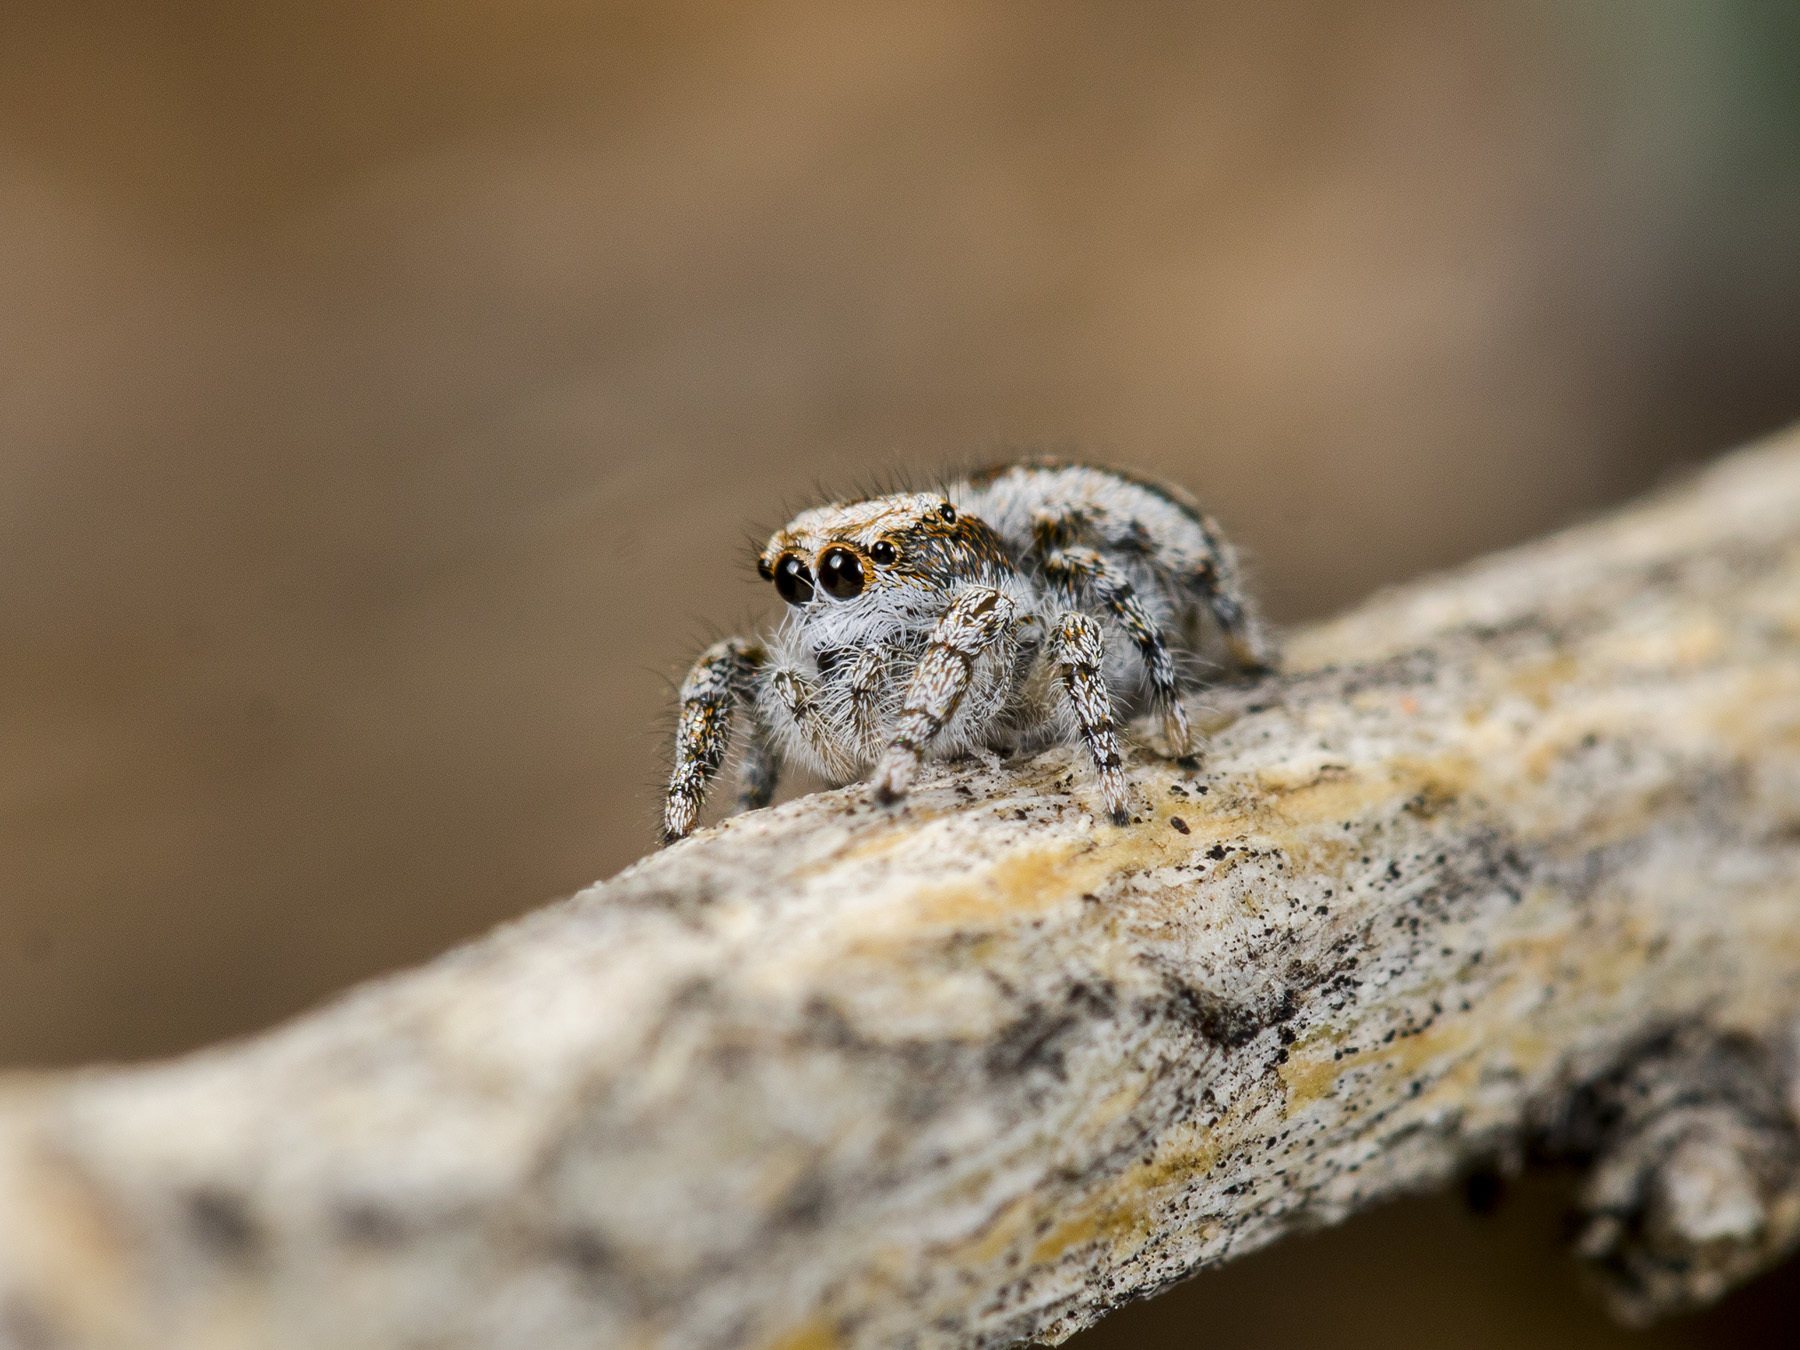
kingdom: Animalia
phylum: Arthropoda
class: Arachnida
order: Araneae
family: Salticidae
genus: Pseudomogrus
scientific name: Pseudomogrus dalaensis
